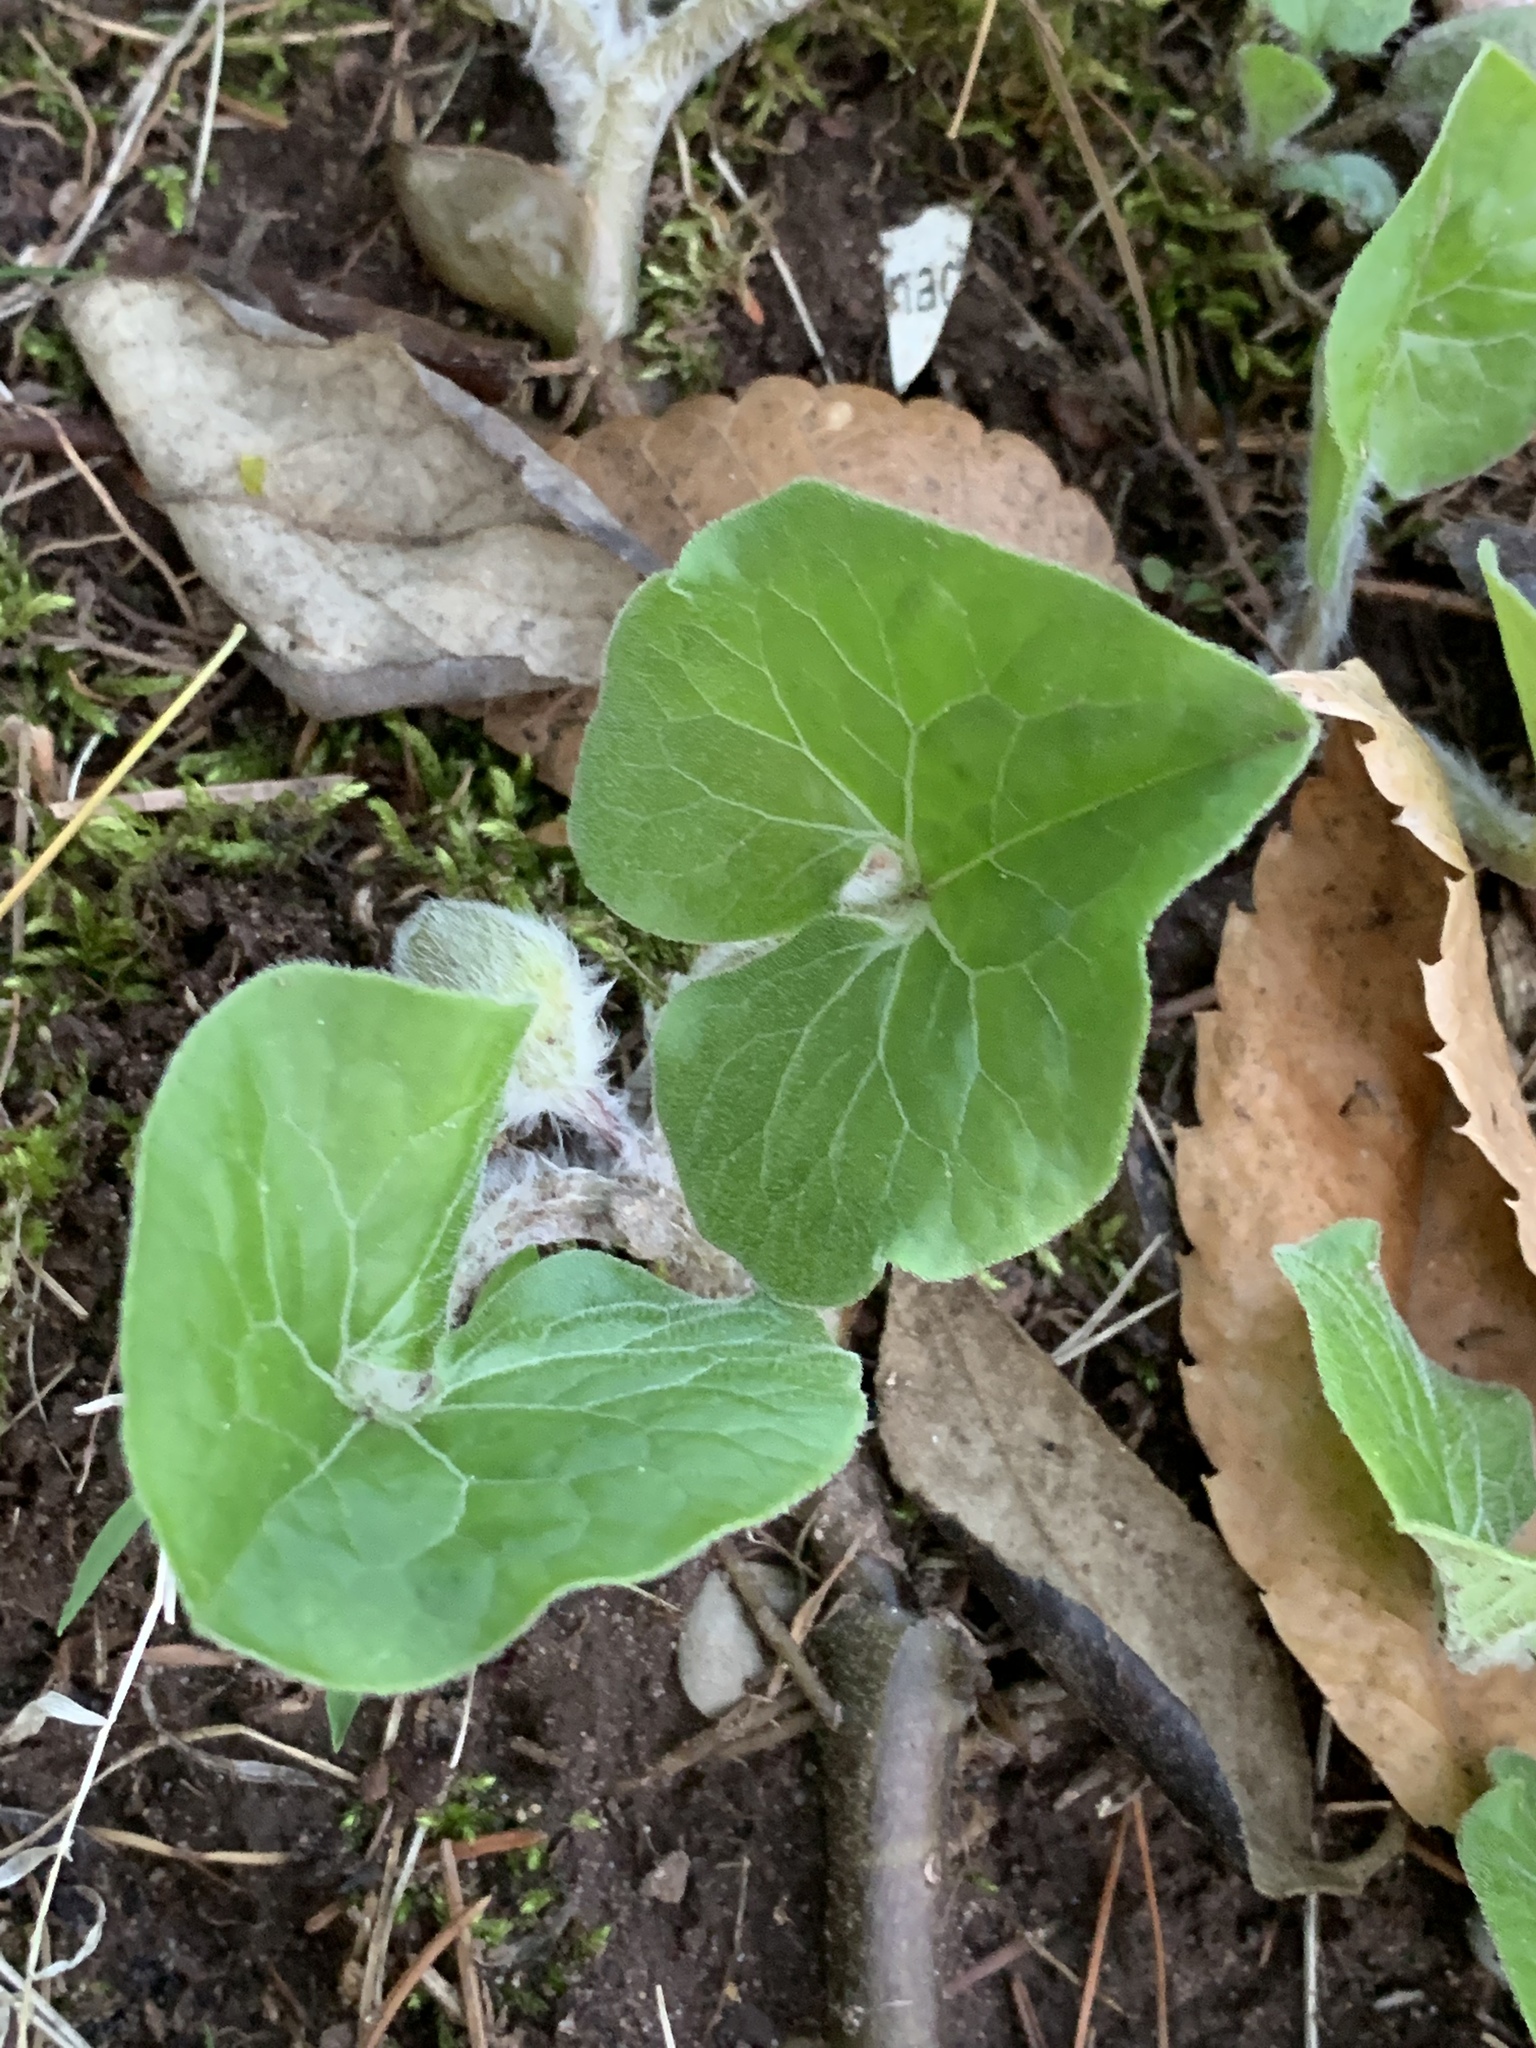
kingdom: Plantae
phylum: Tracheophyta
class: Magnoliopsida
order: Piperales
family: Aristolochiaceae
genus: Asarum
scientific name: Asarum canadense
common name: Wild ginger
